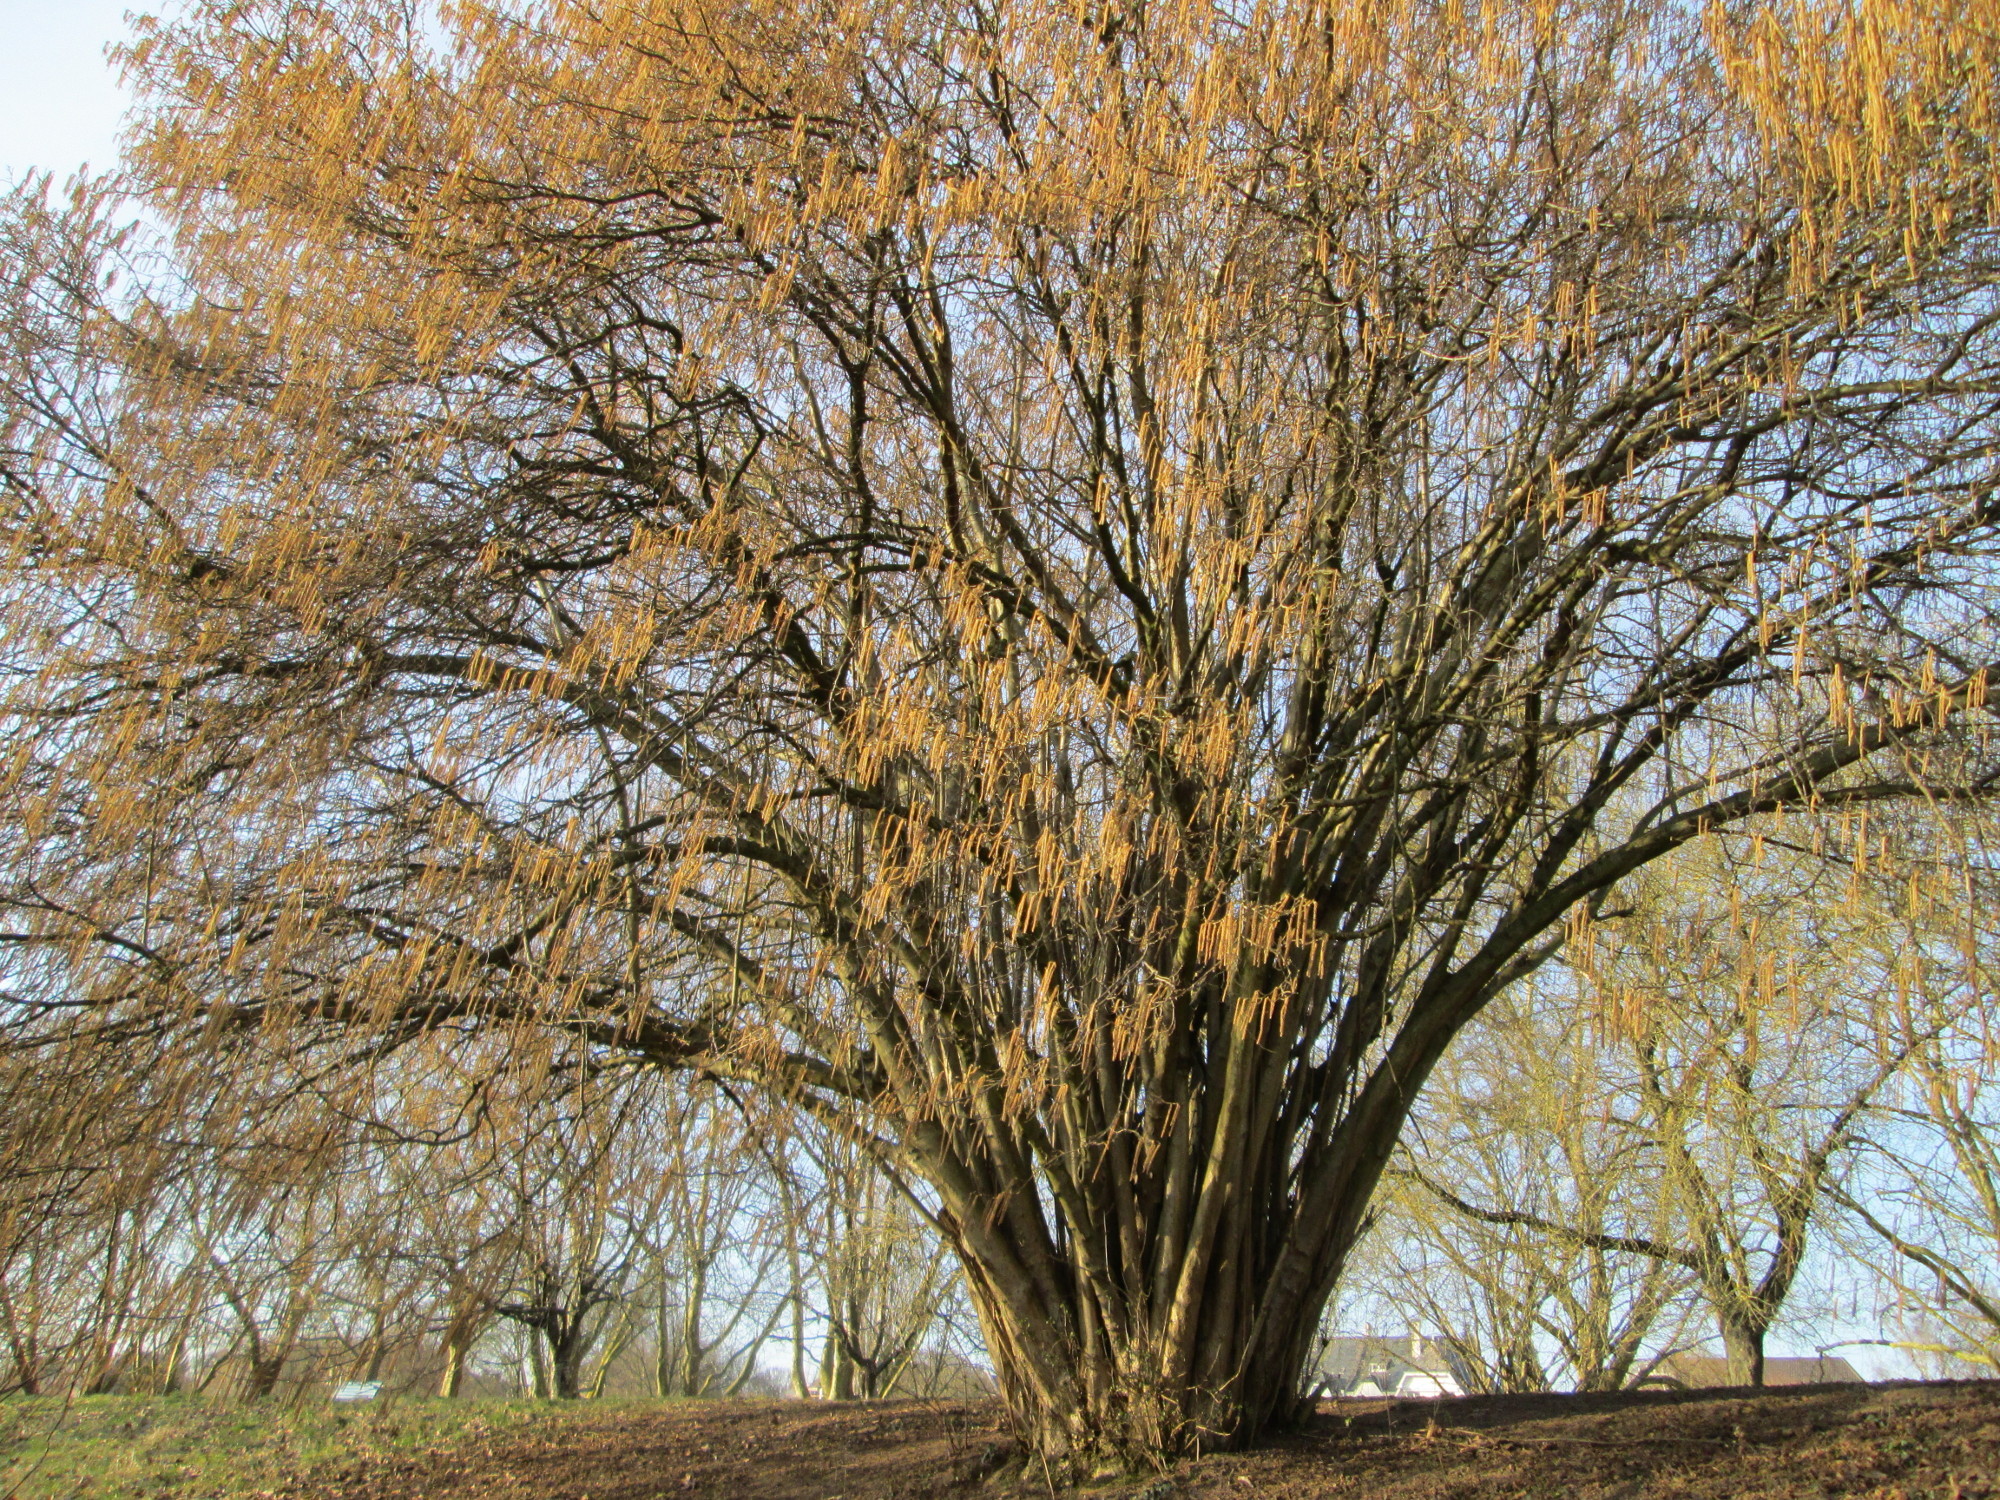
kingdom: Plantae
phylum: Tracheophyta
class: Magnoliopsida
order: Fagales
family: Betulaceae
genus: Corylus
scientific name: Corylus avellana
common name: European hazel
